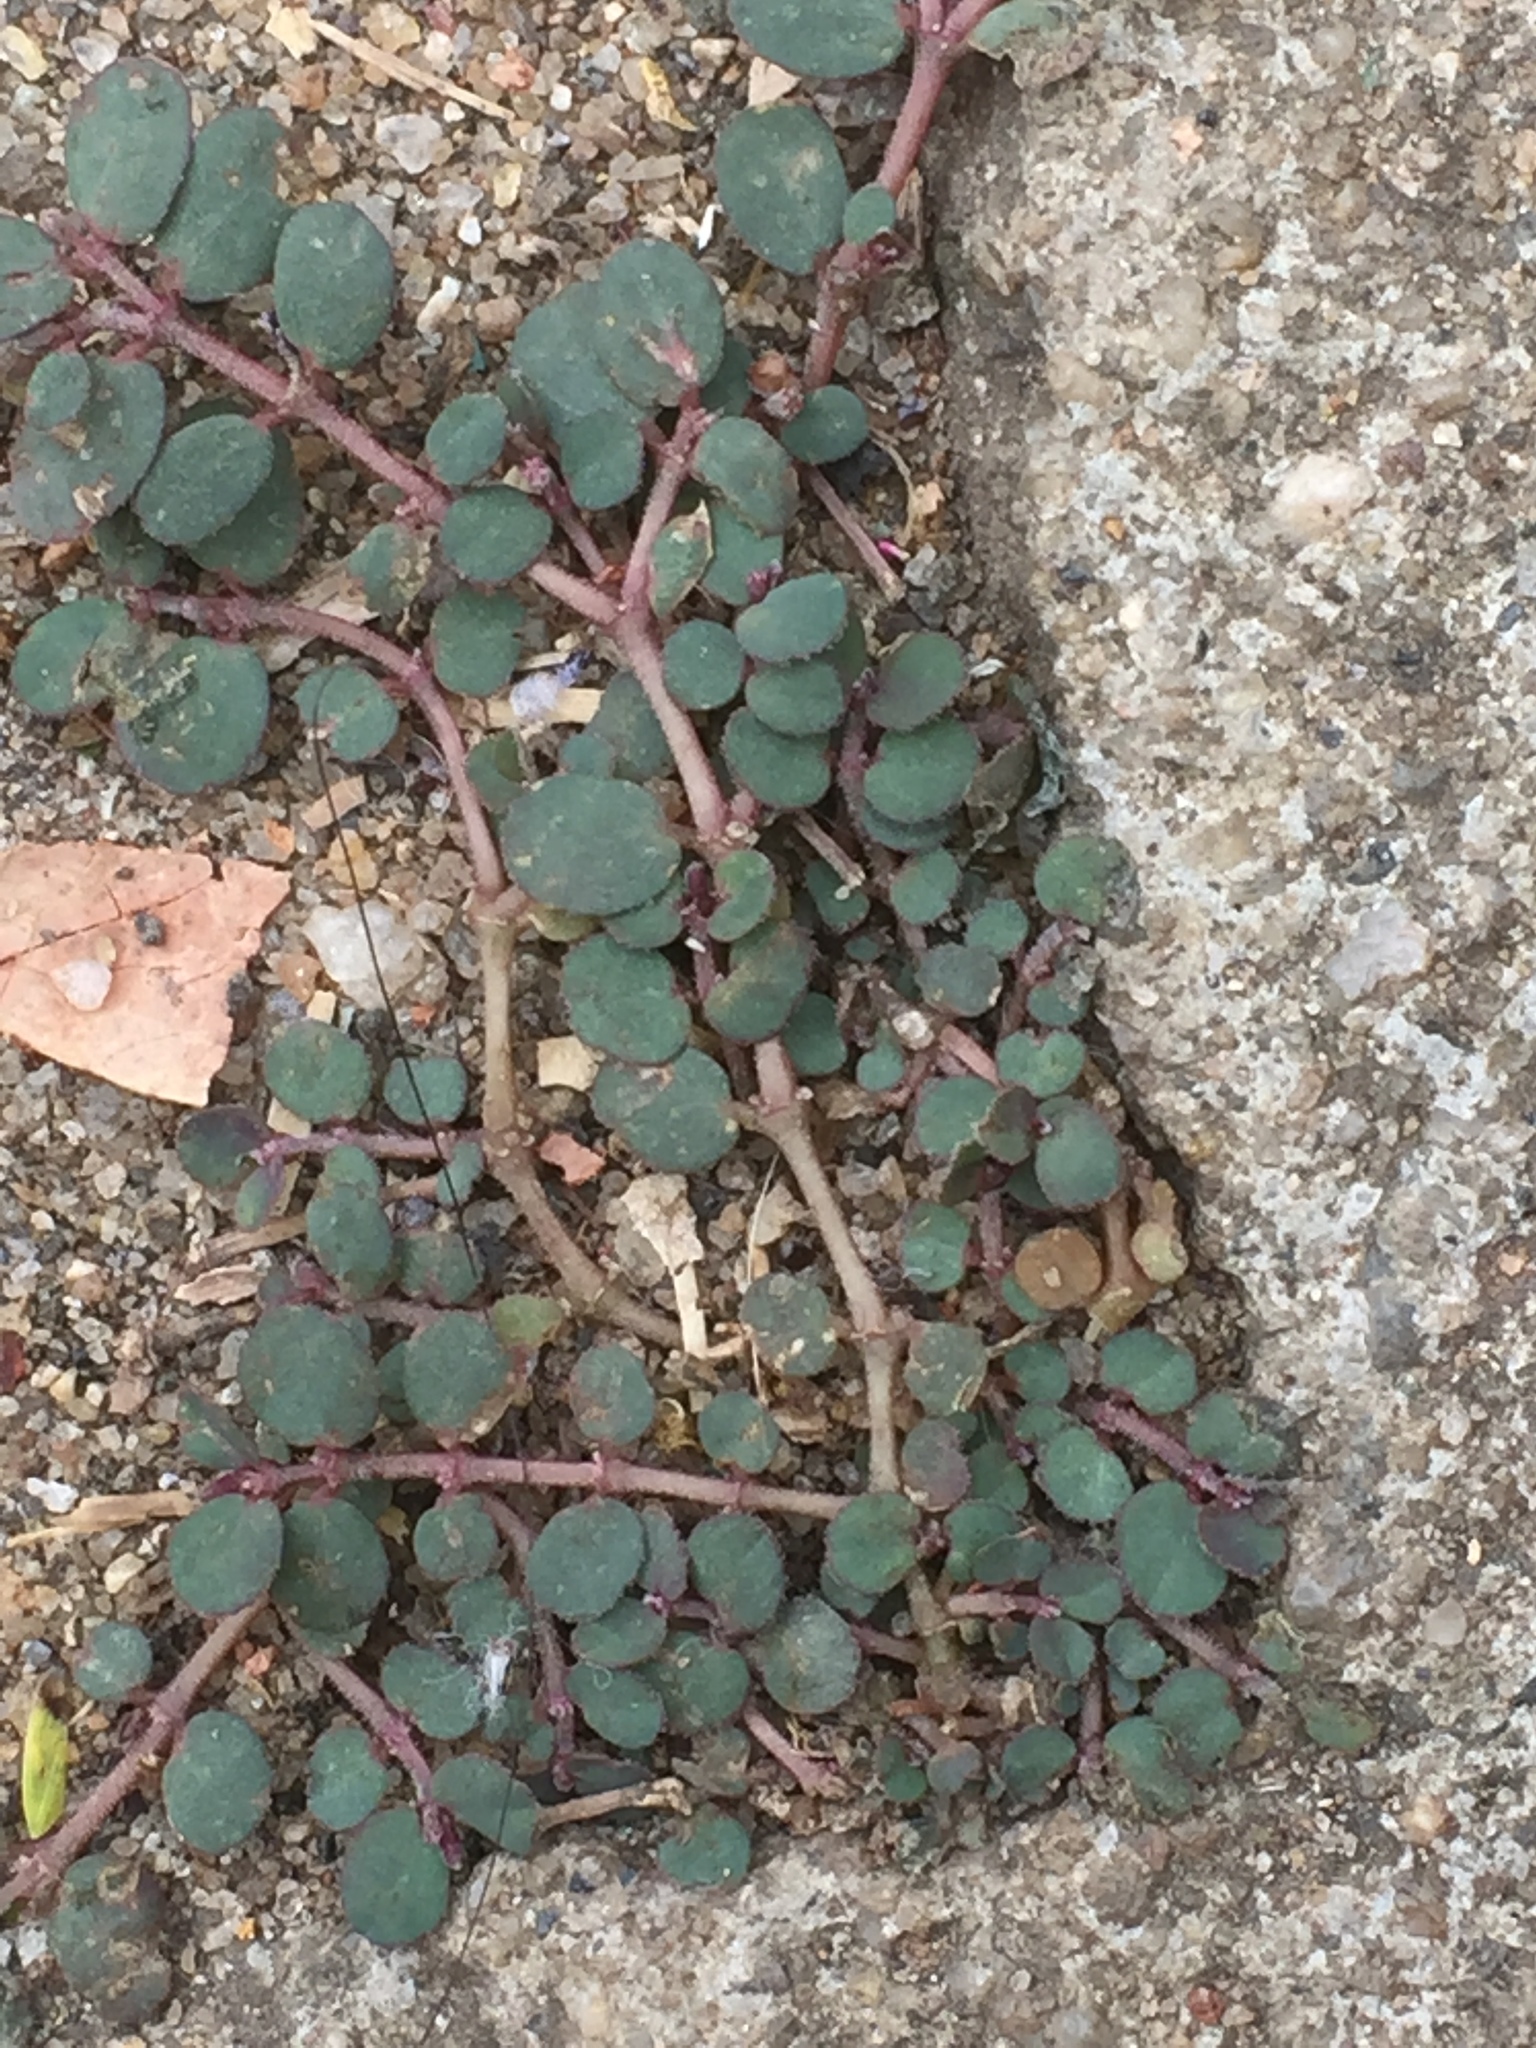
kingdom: Plantae
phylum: Tracheophyta
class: Magnoliopsida
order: Malpighiales
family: Euphorbiaceae
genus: Euphorbia
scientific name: Euphorbia prostrata
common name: Prostrate sandmat
